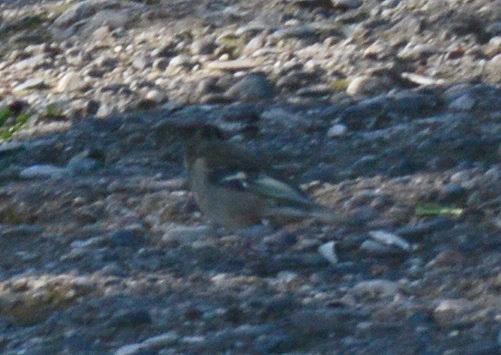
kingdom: Animalia
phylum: Chordata
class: Aves
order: Passeriformes
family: Fringillidae
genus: Fringilla
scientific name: Fringilla montifringilla
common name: Brambling
